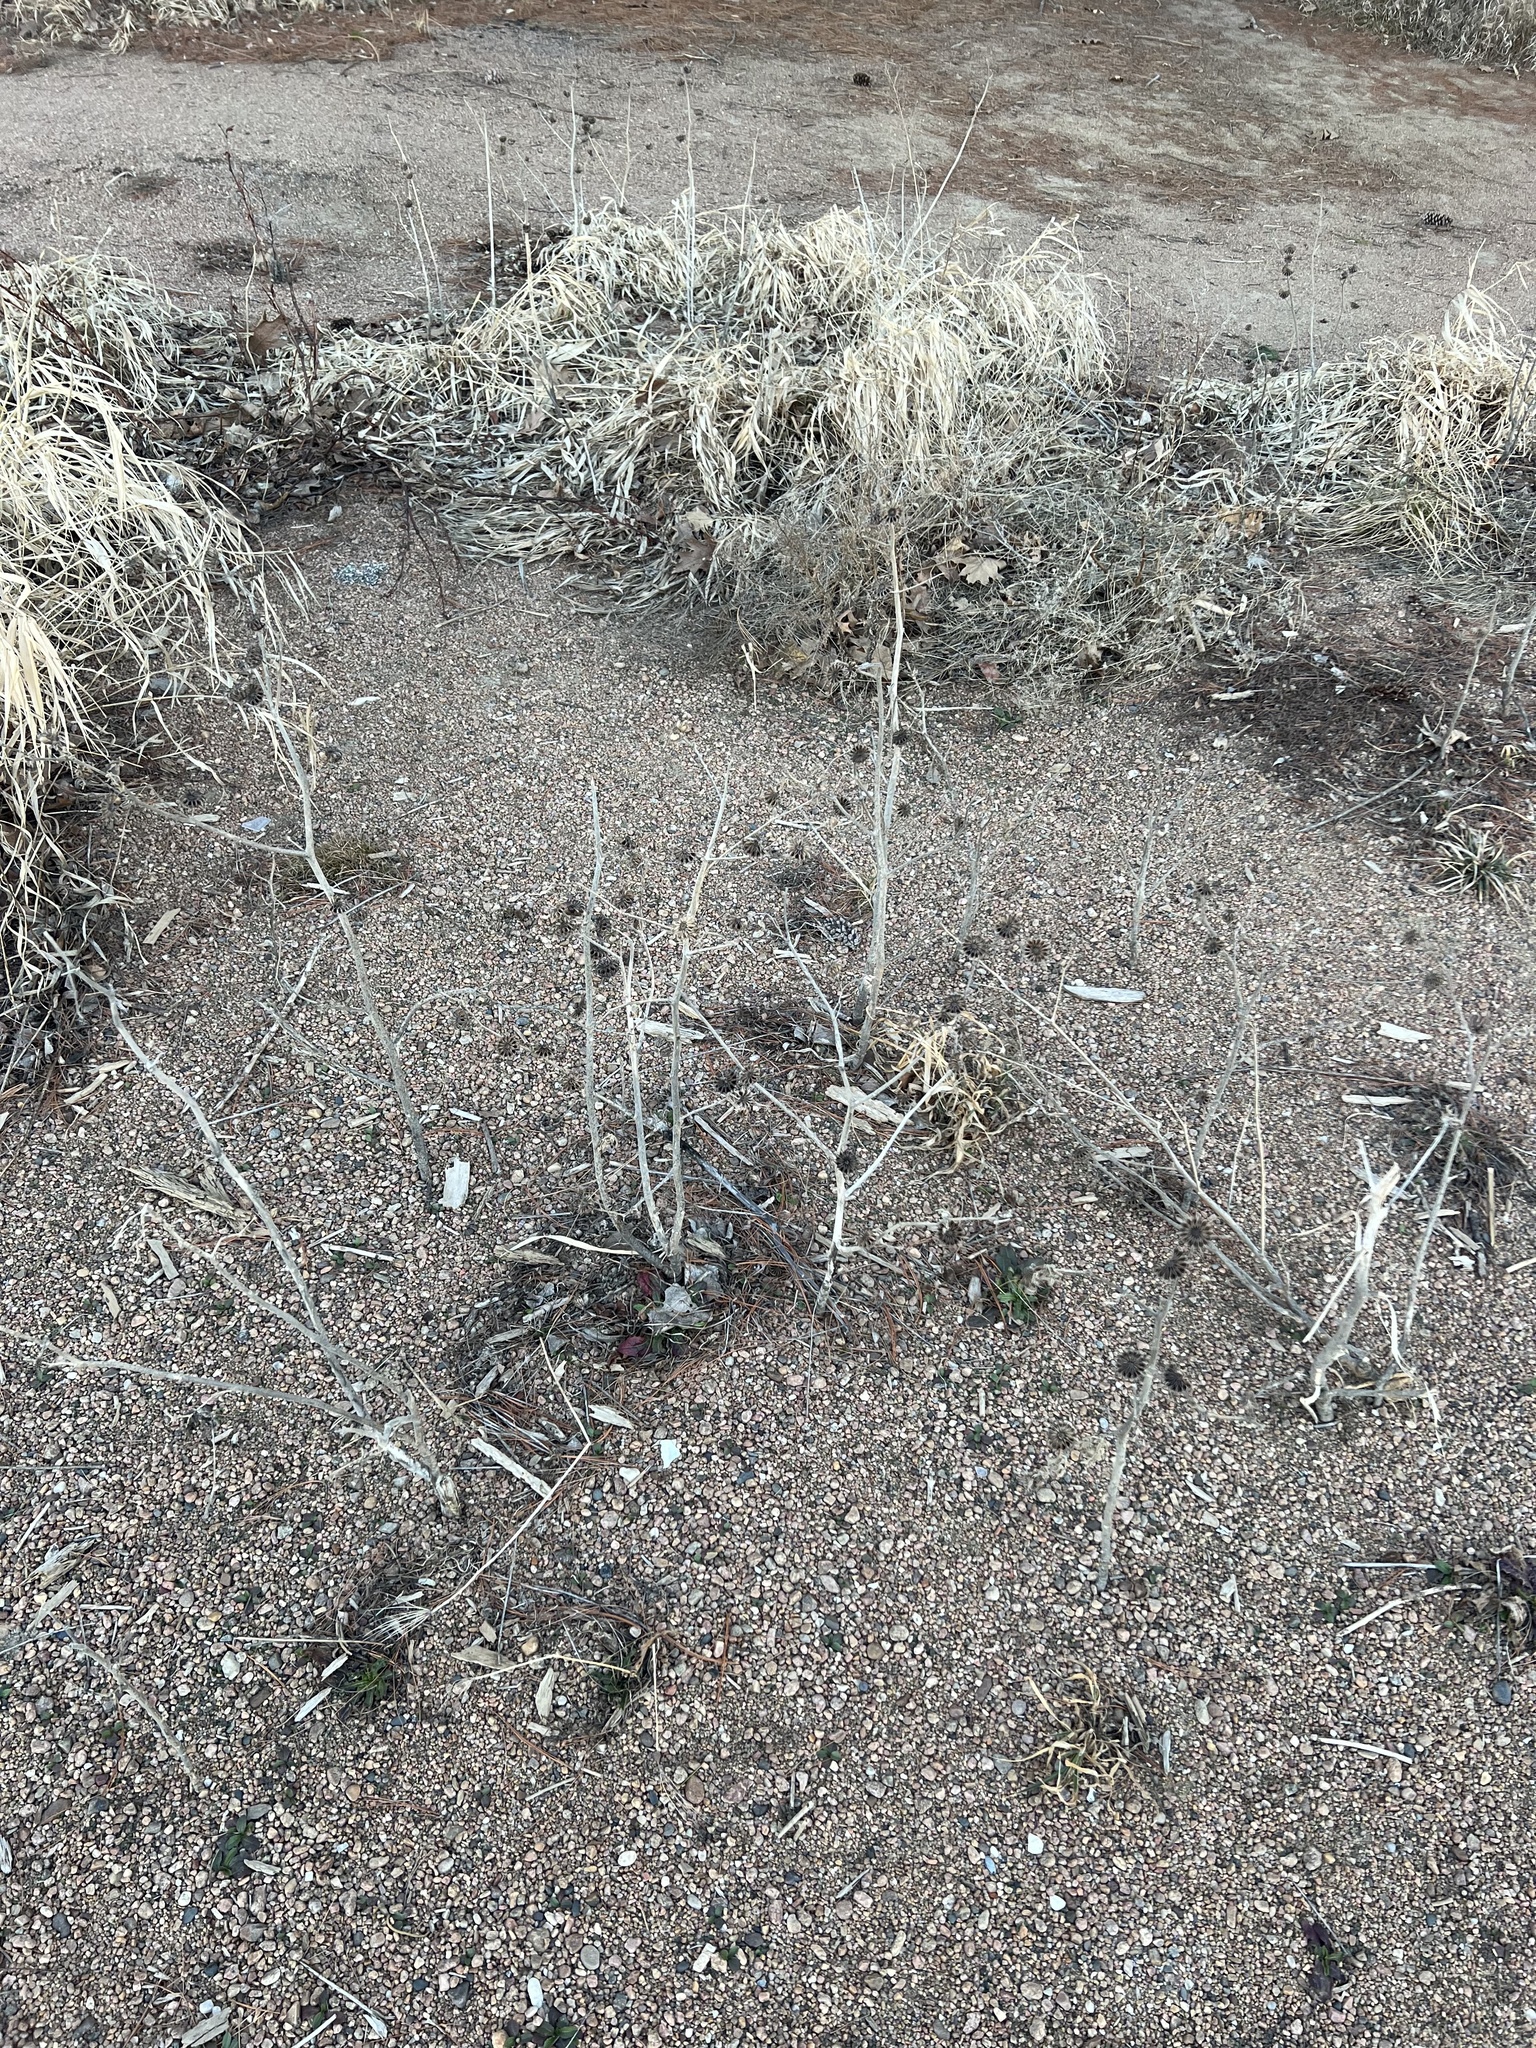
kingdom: Plantae
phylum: Tracheophyta
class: Magnoliopsida
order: Malvales
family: Malvaceae
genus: Abutilon
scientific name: Abutilon theophrasti
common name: Velvetleaf
